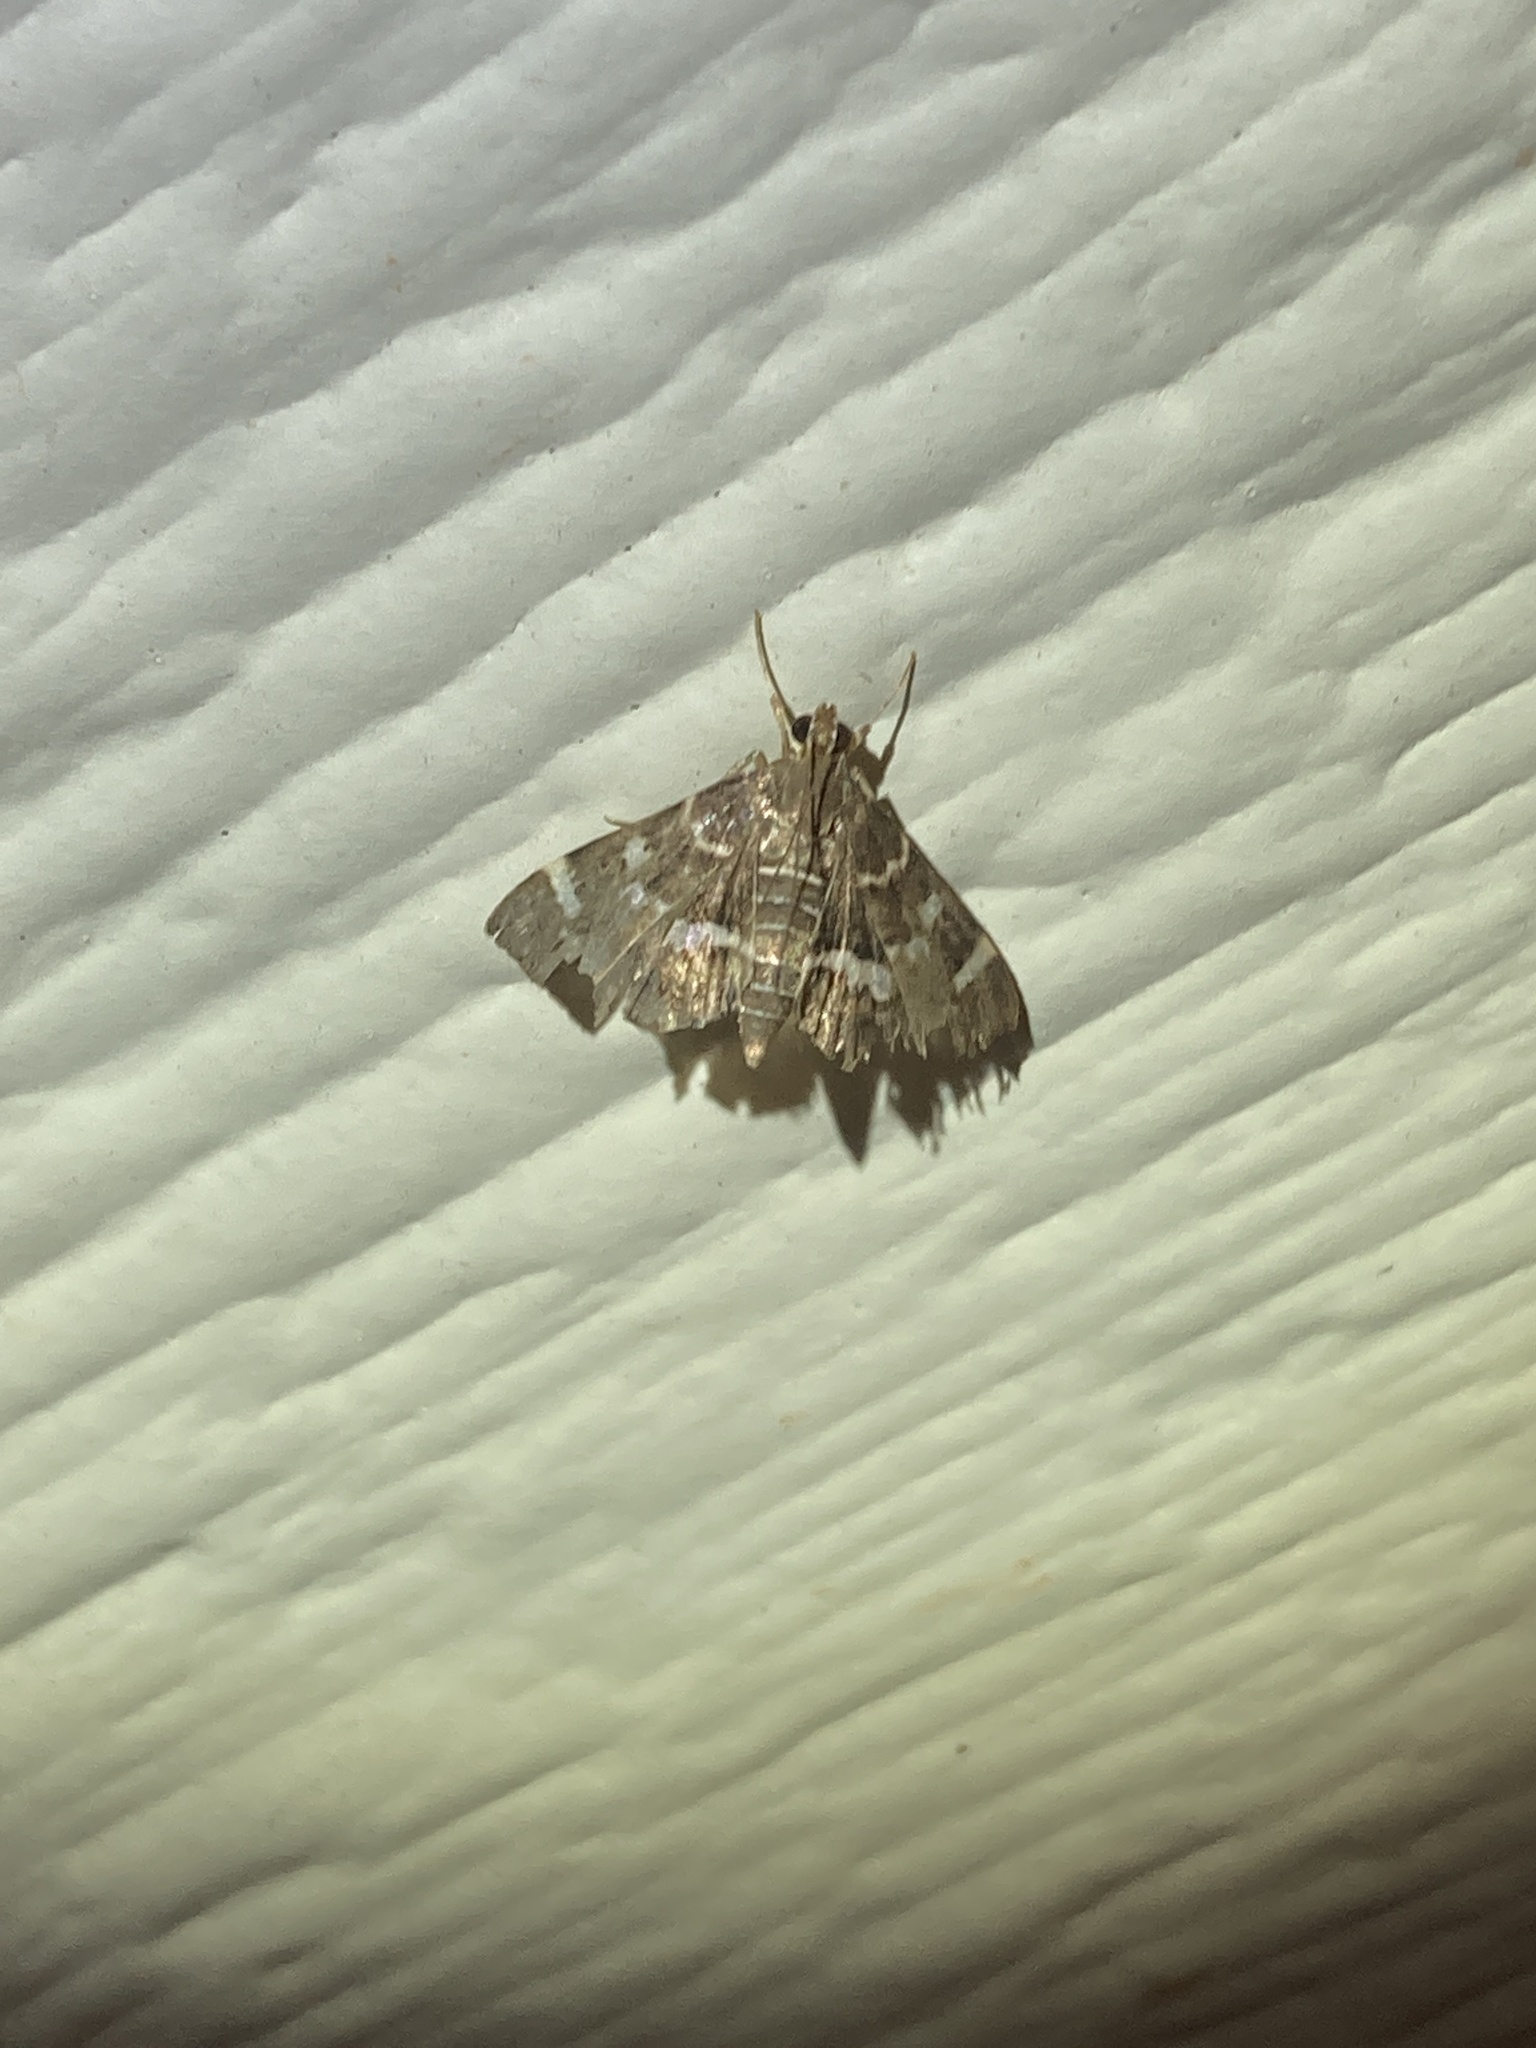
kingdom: Animalia
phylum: Arthropoda
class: Insecta
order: Lepidoptera
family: Crambidae
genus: Hymenia
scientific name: Hymenia perspectalis
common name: Spotted beet webworm
